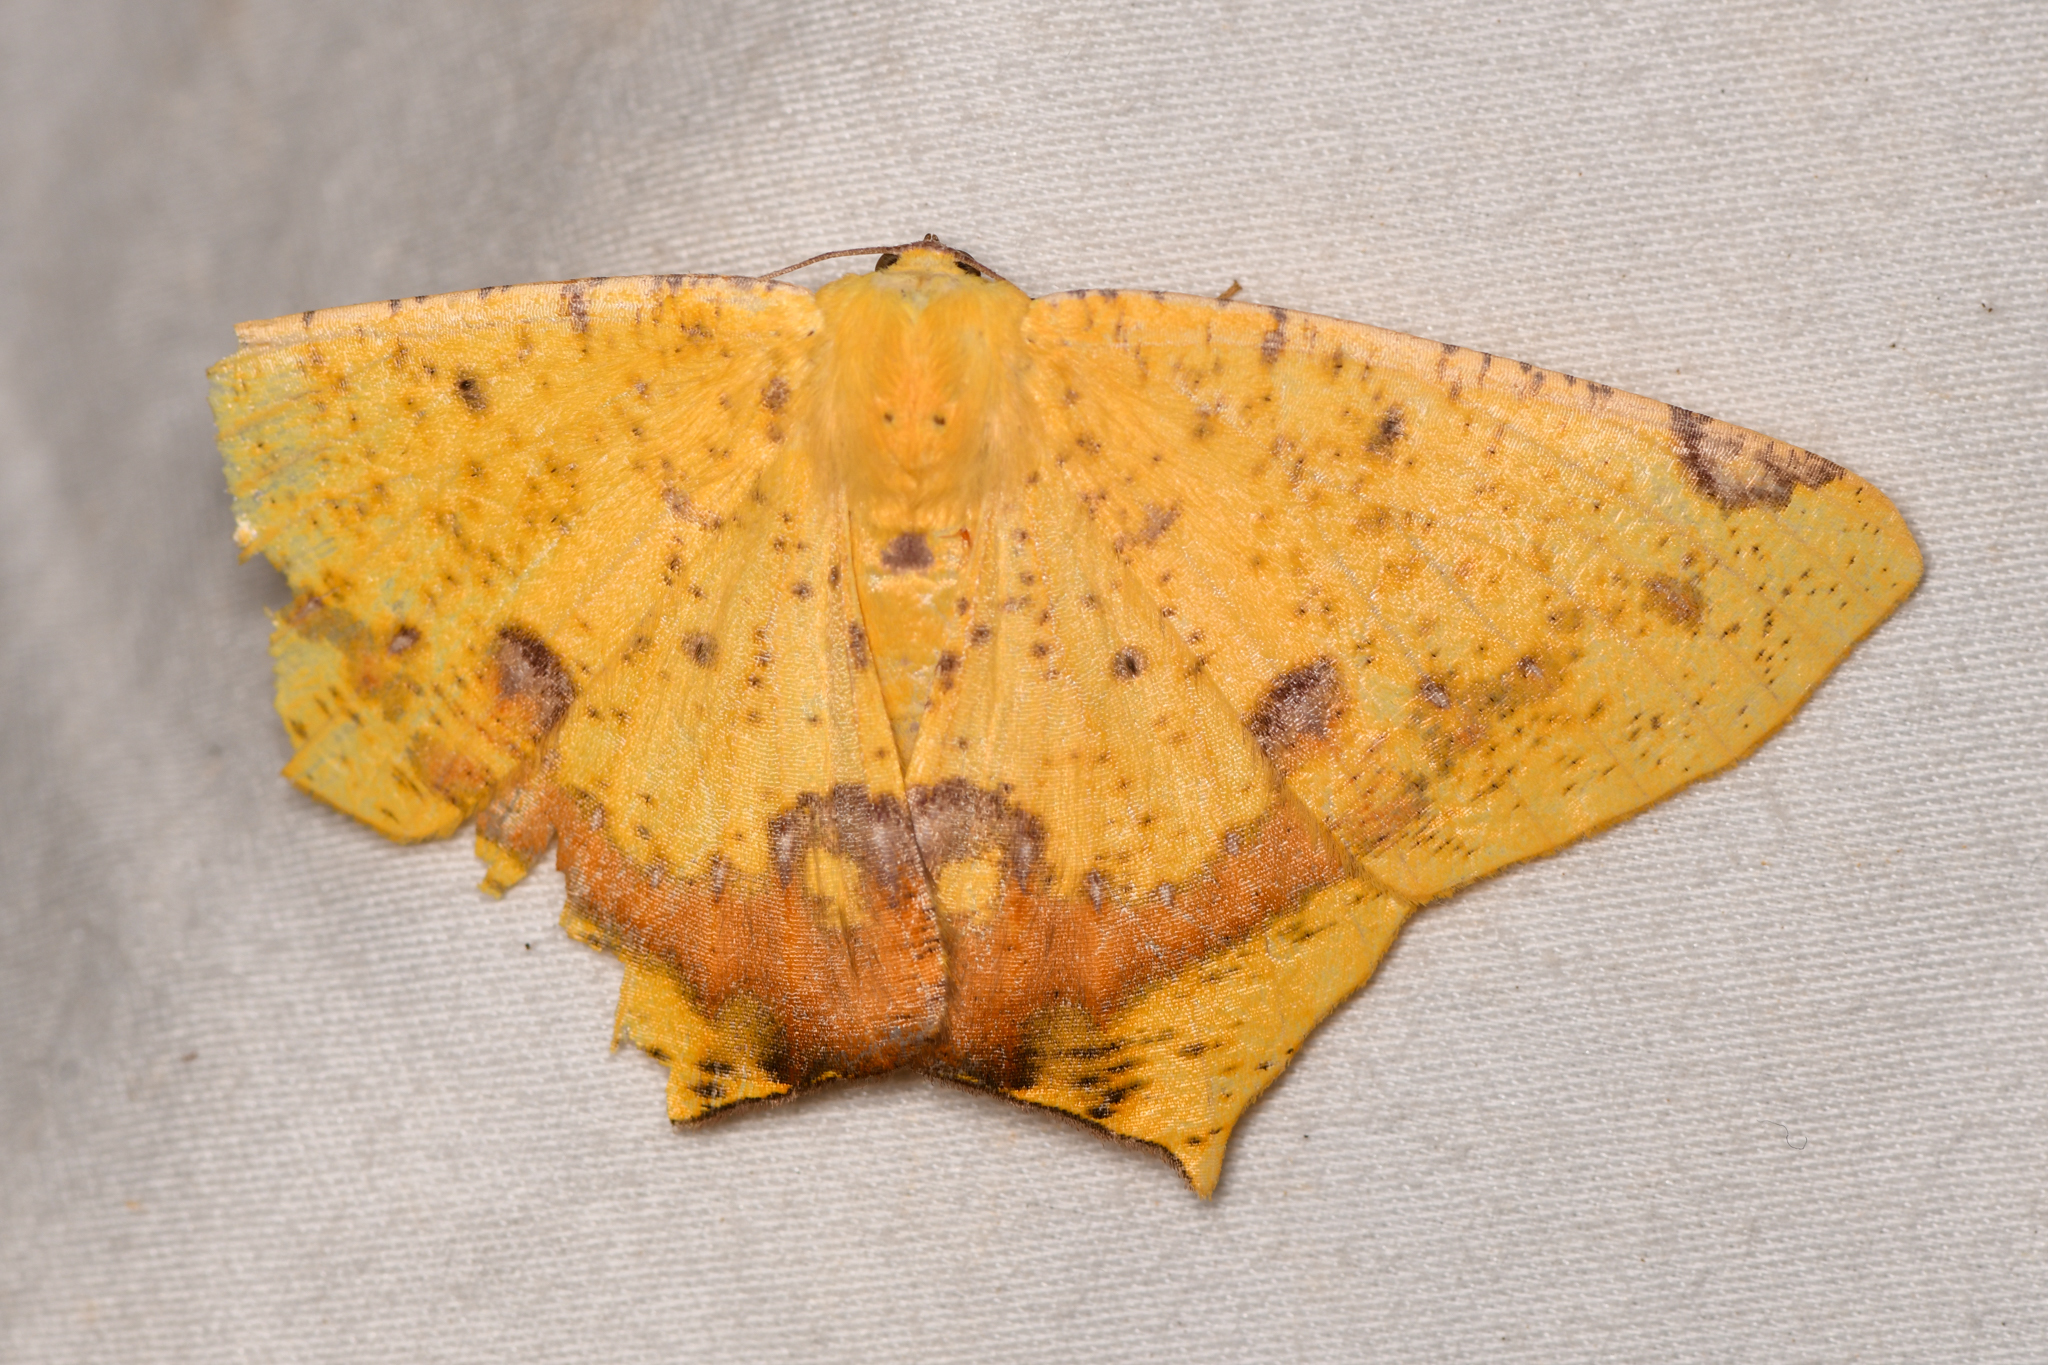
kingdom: Animalia
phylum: Arthropoda
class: Insecta
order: Lepidoptera
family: Geometridae
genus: Nepheloleuca
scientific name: Nepheloleuca politia
